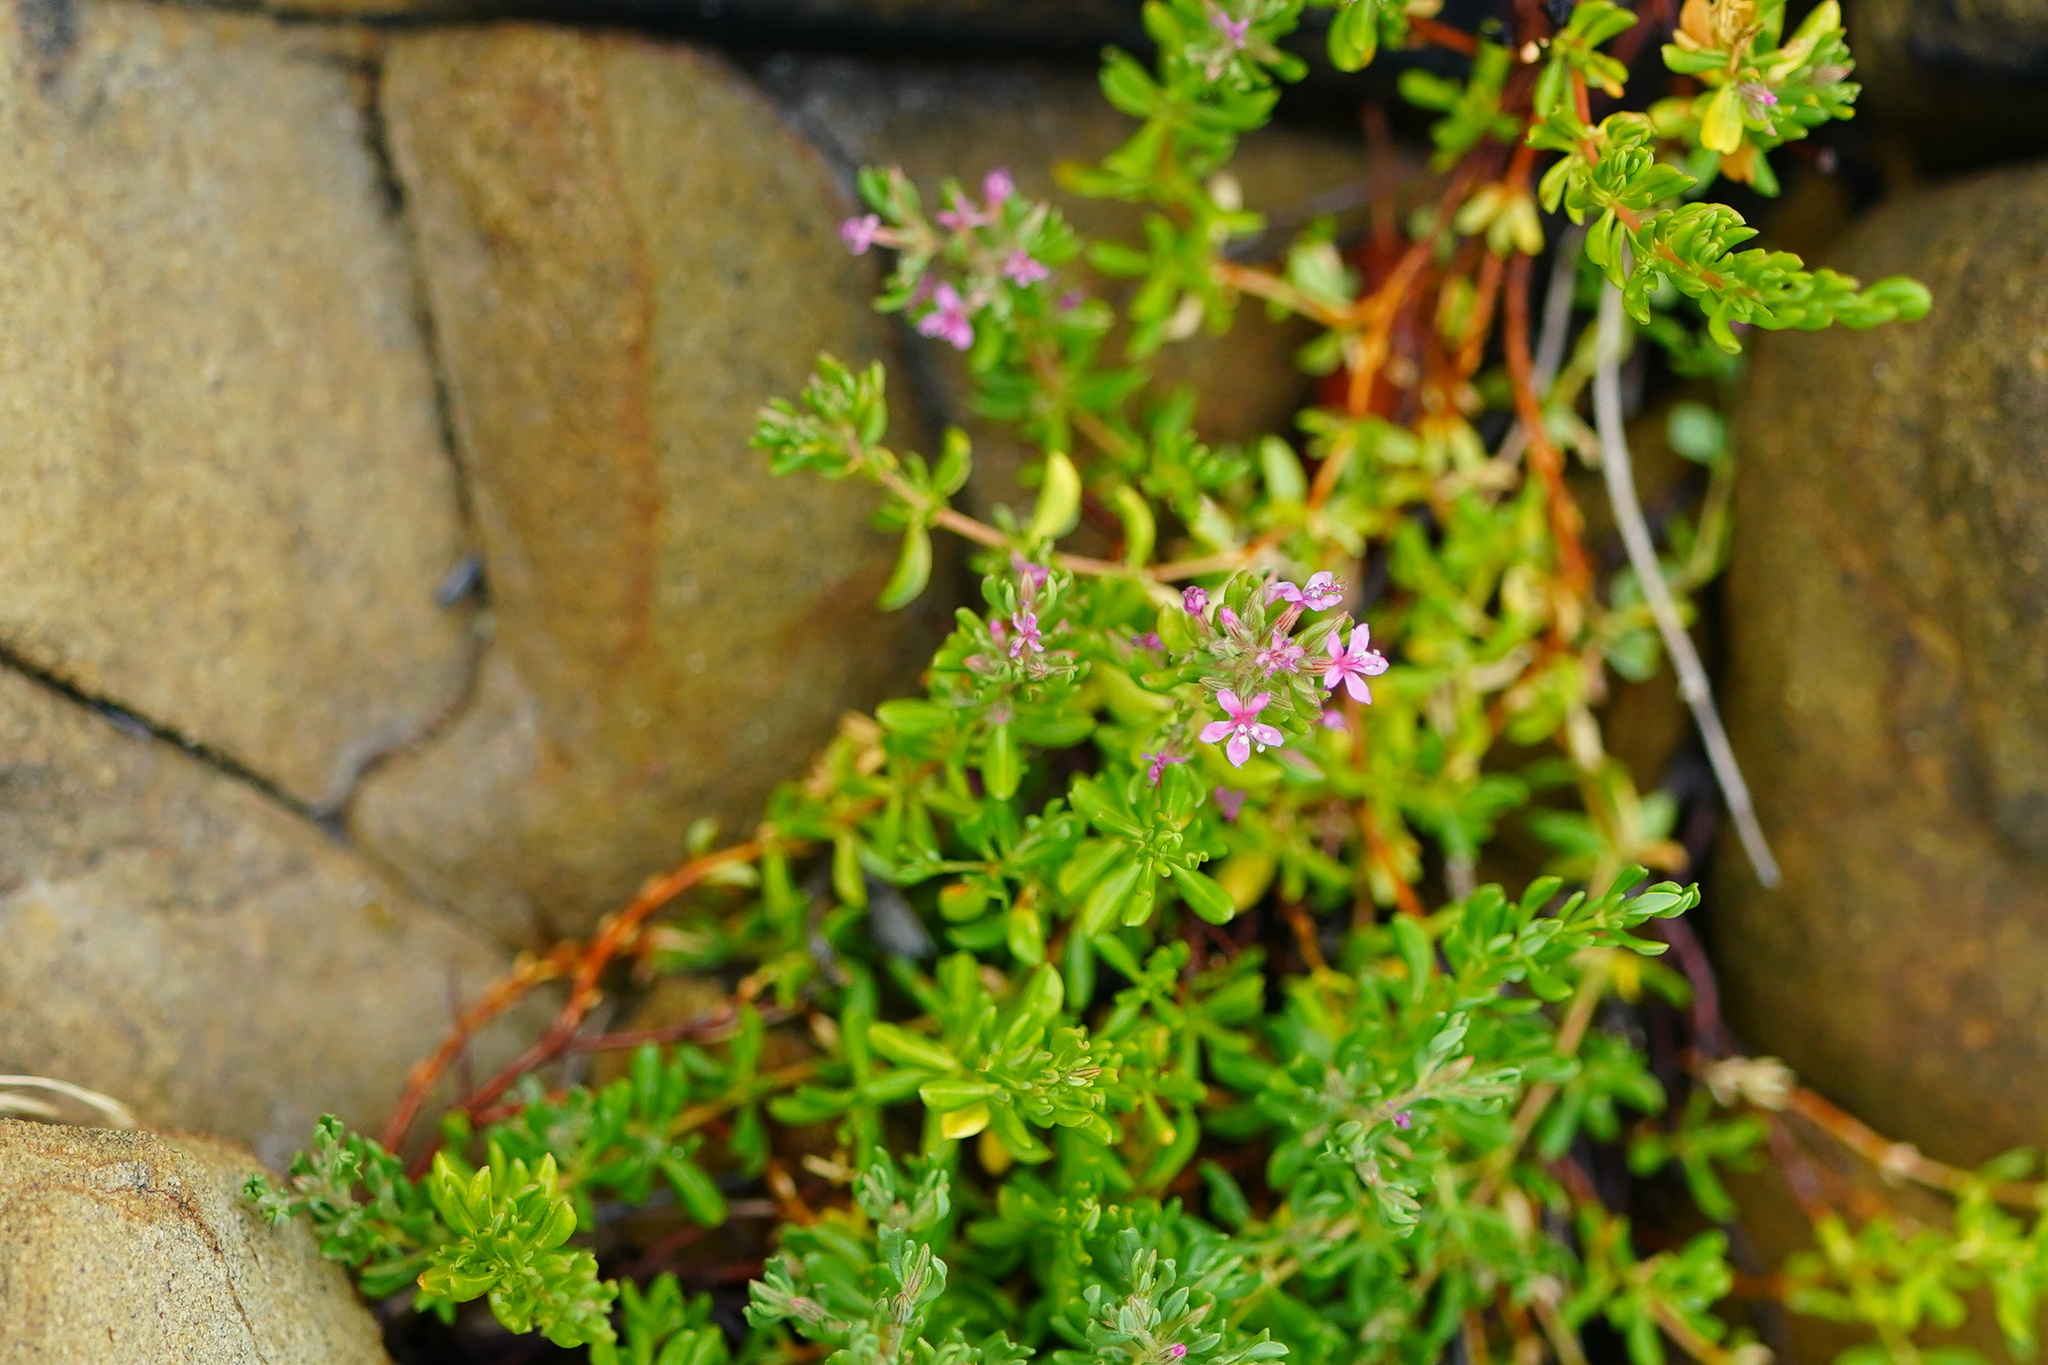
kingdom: Plantae
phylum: Tracheophyta
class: Magnoliopsida
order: Caryophyllales
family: Frankeniaceae
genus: Frankenia
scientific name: Frankenia salina
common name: Alkali seaheath
